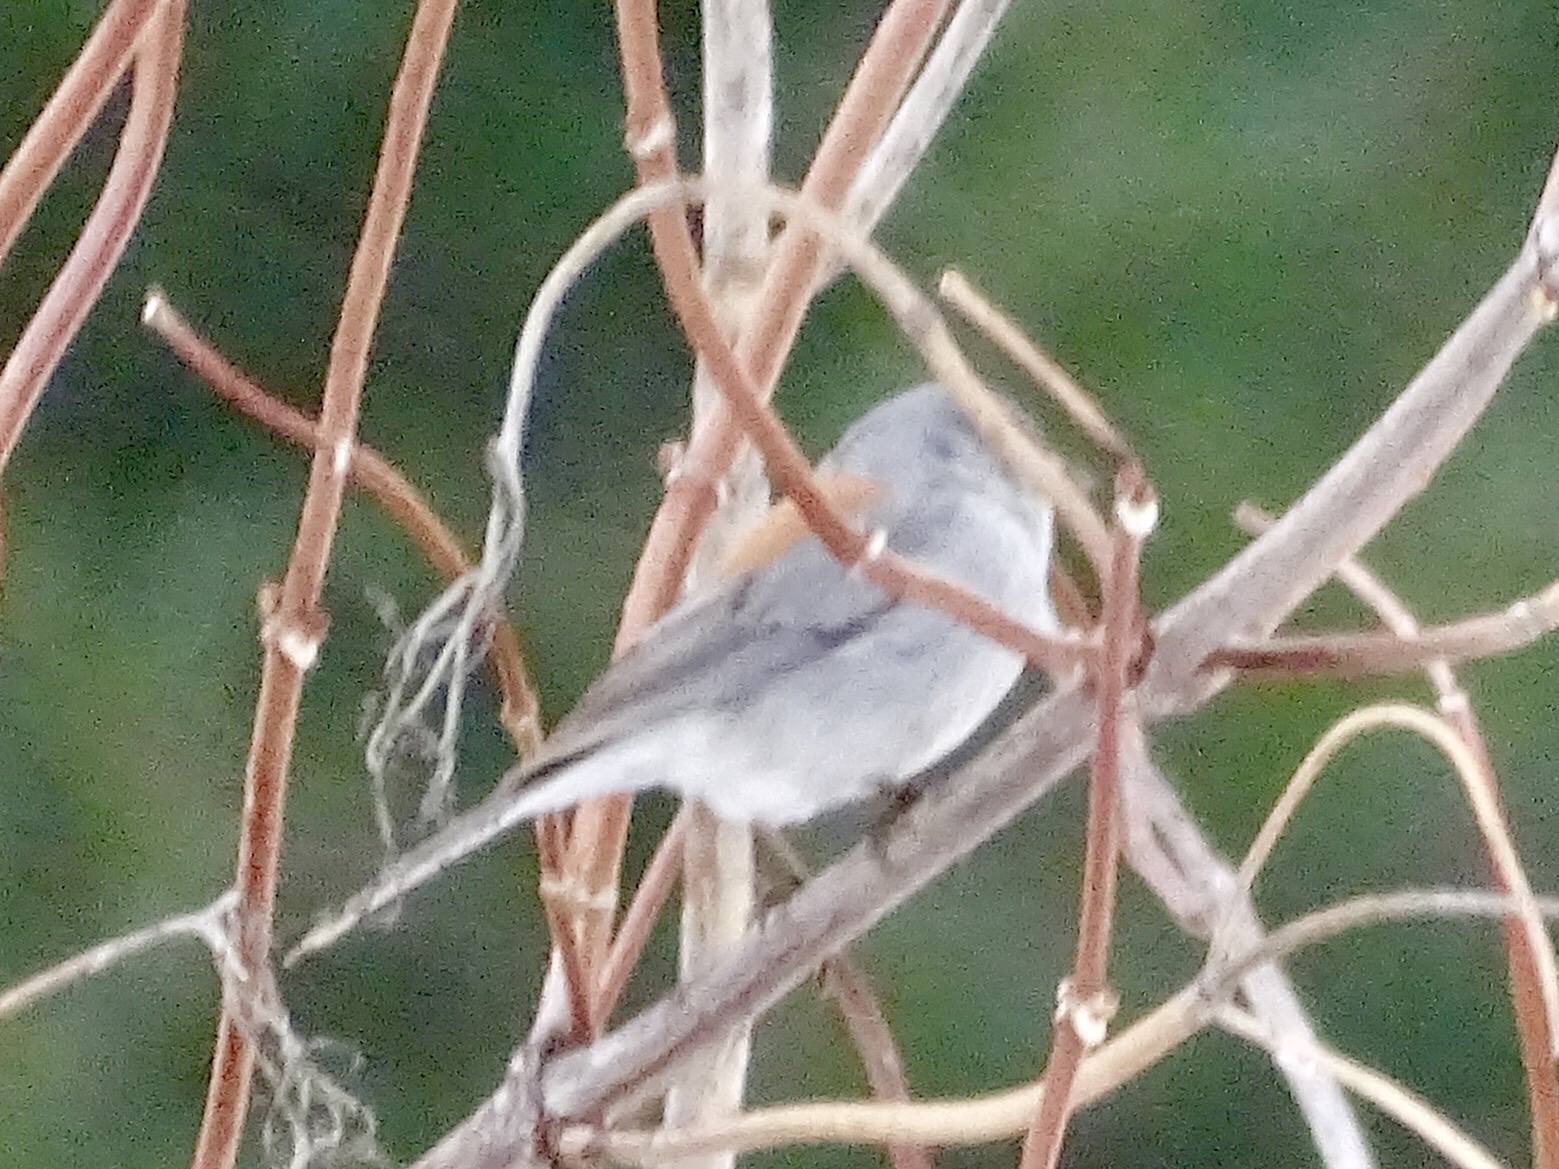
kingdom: Animalia
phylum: Chordata
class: Aves
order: Passeriformes
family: Passerellidae
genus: Junco
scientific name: Junco hyemalis
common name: Dark-eyed junco
